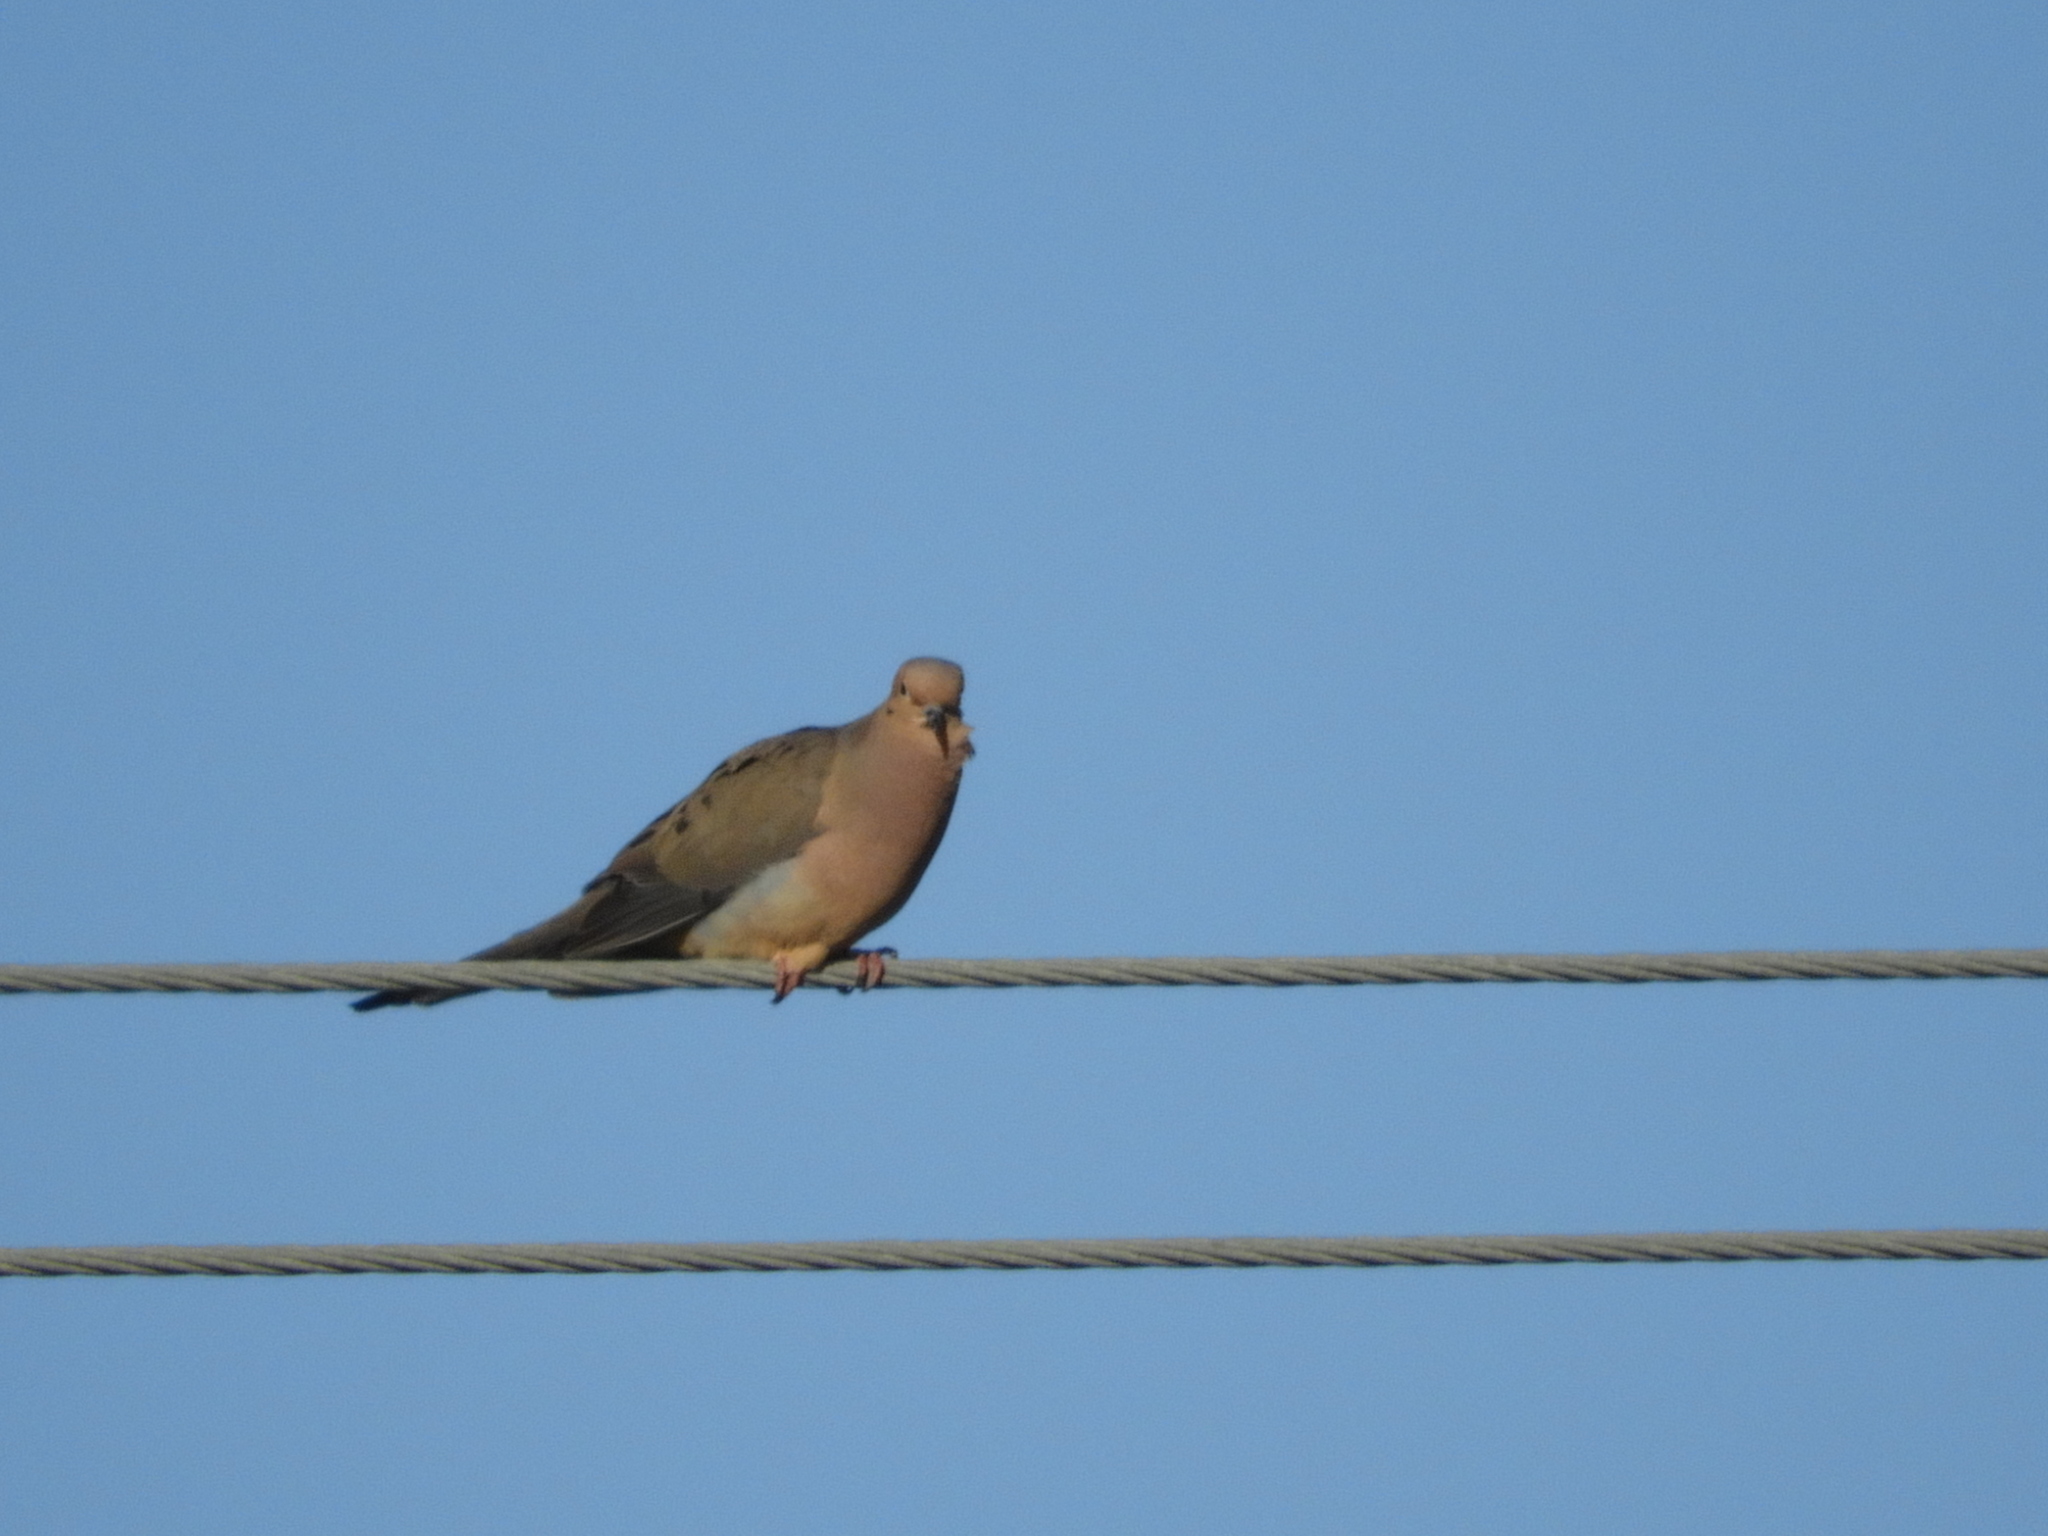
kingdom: Animalia
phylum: Chordata
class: Aves
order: Columbiformes
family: Columbidae
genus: Zenaida
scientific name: Zenaida macroura
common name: Mourning dove
